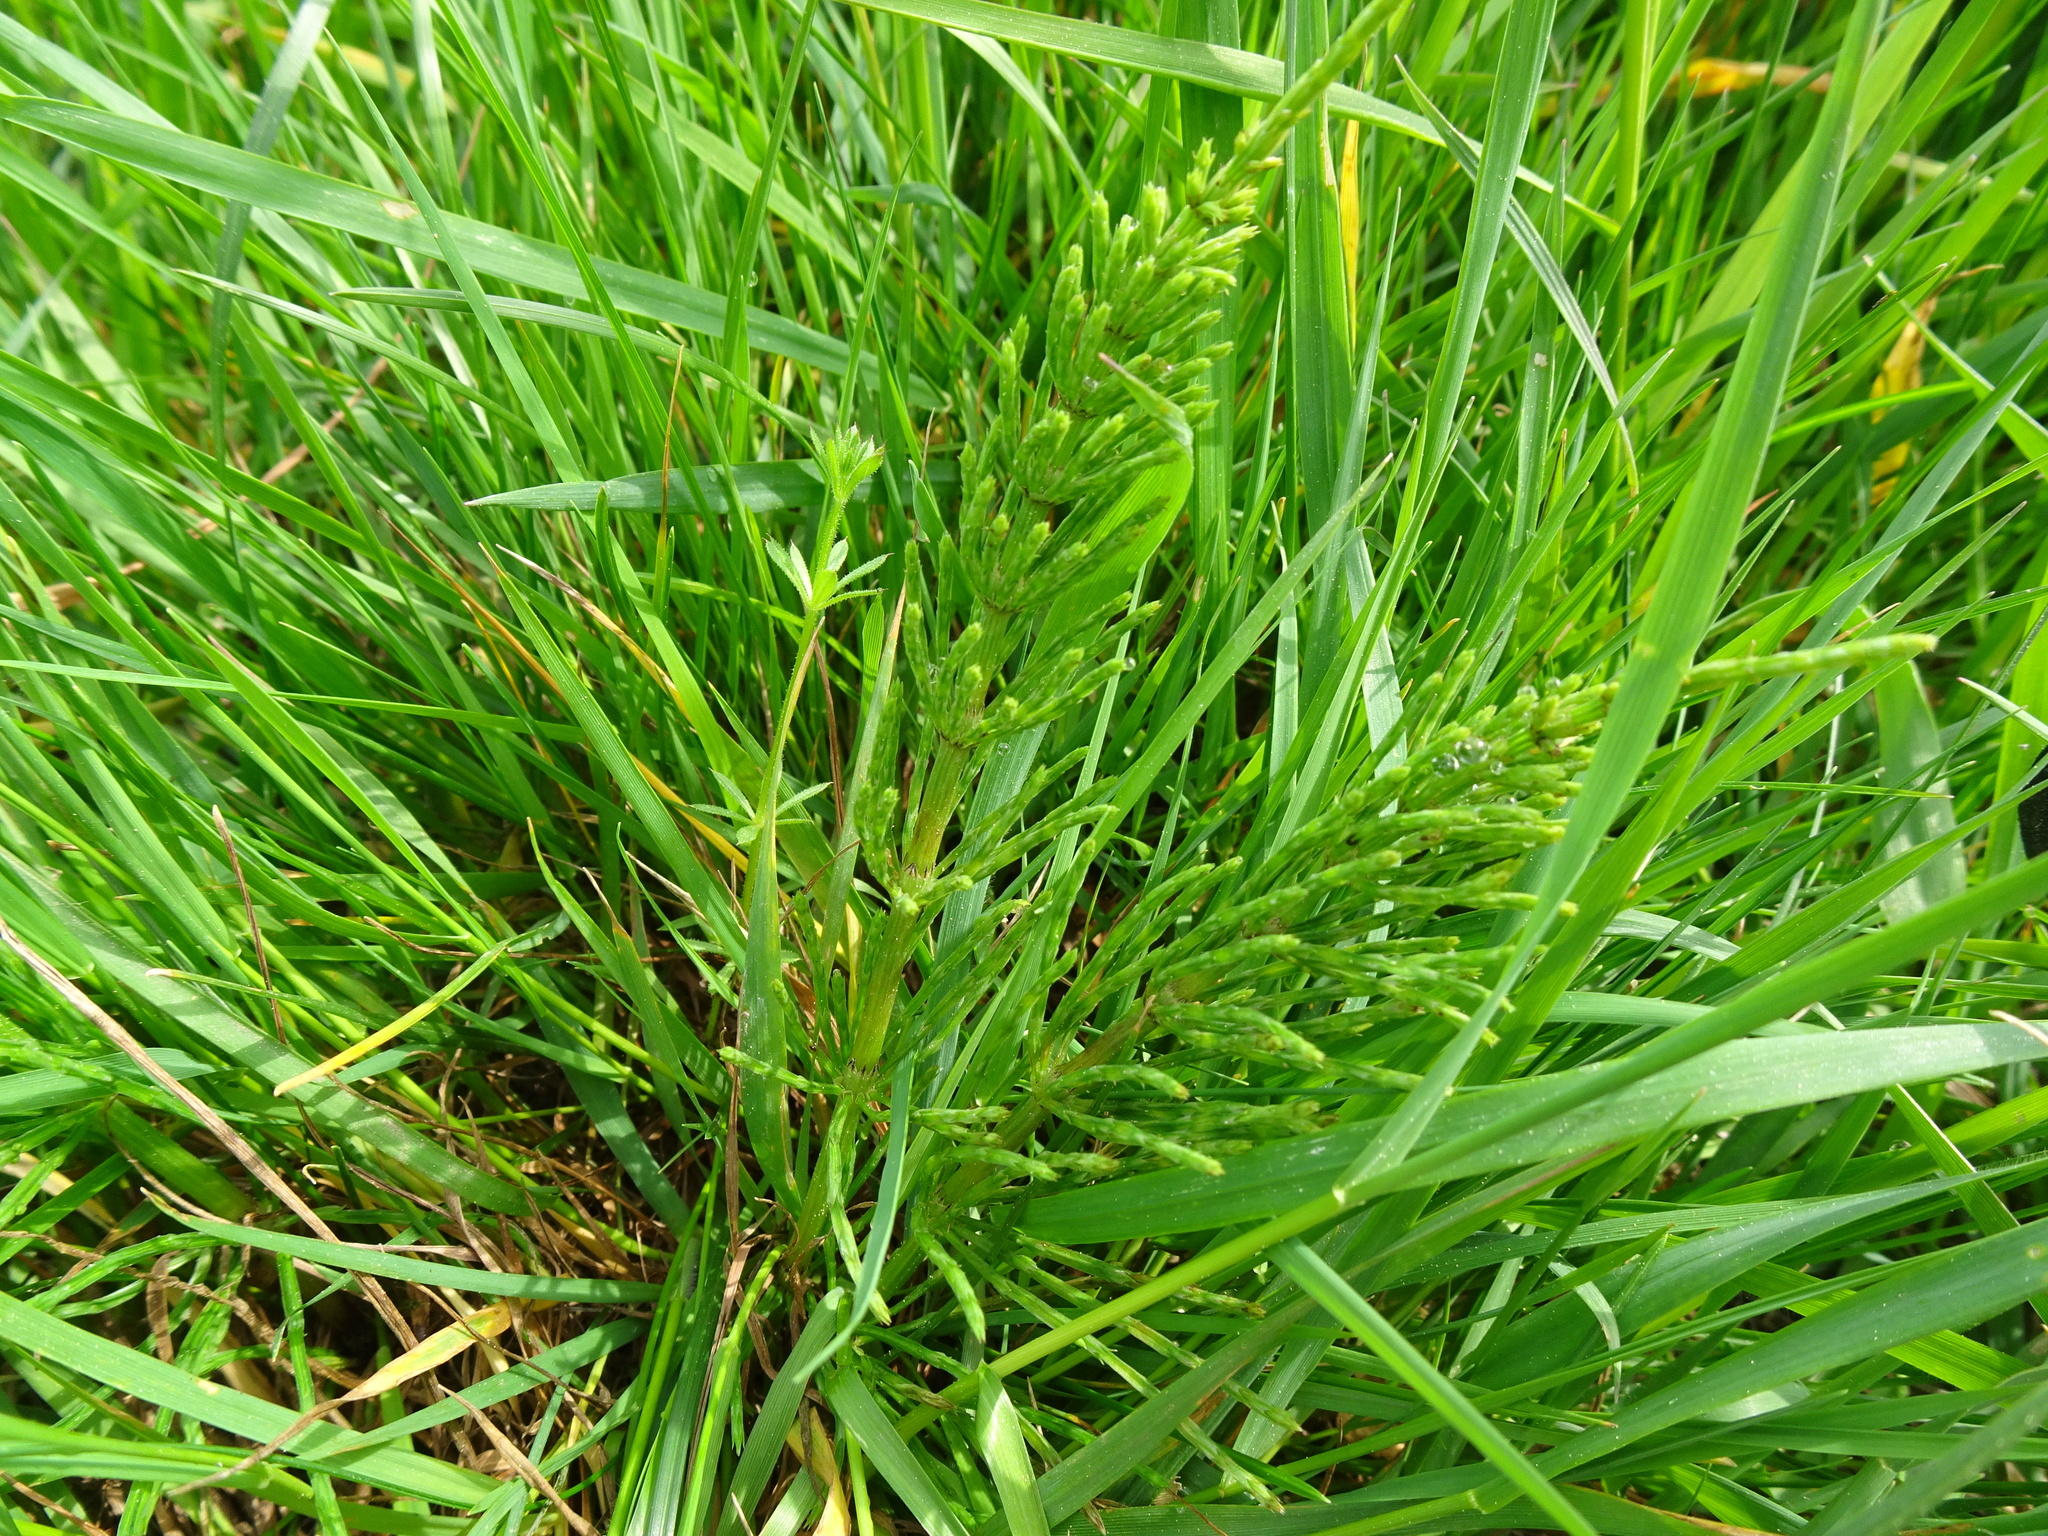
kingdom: Plantae
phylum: Tracheophyta
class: Polypodiopsida
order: Equisetales
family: Equisetaceae
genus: Equisetum
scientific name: Equisetum arvense
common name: Field horsetail
